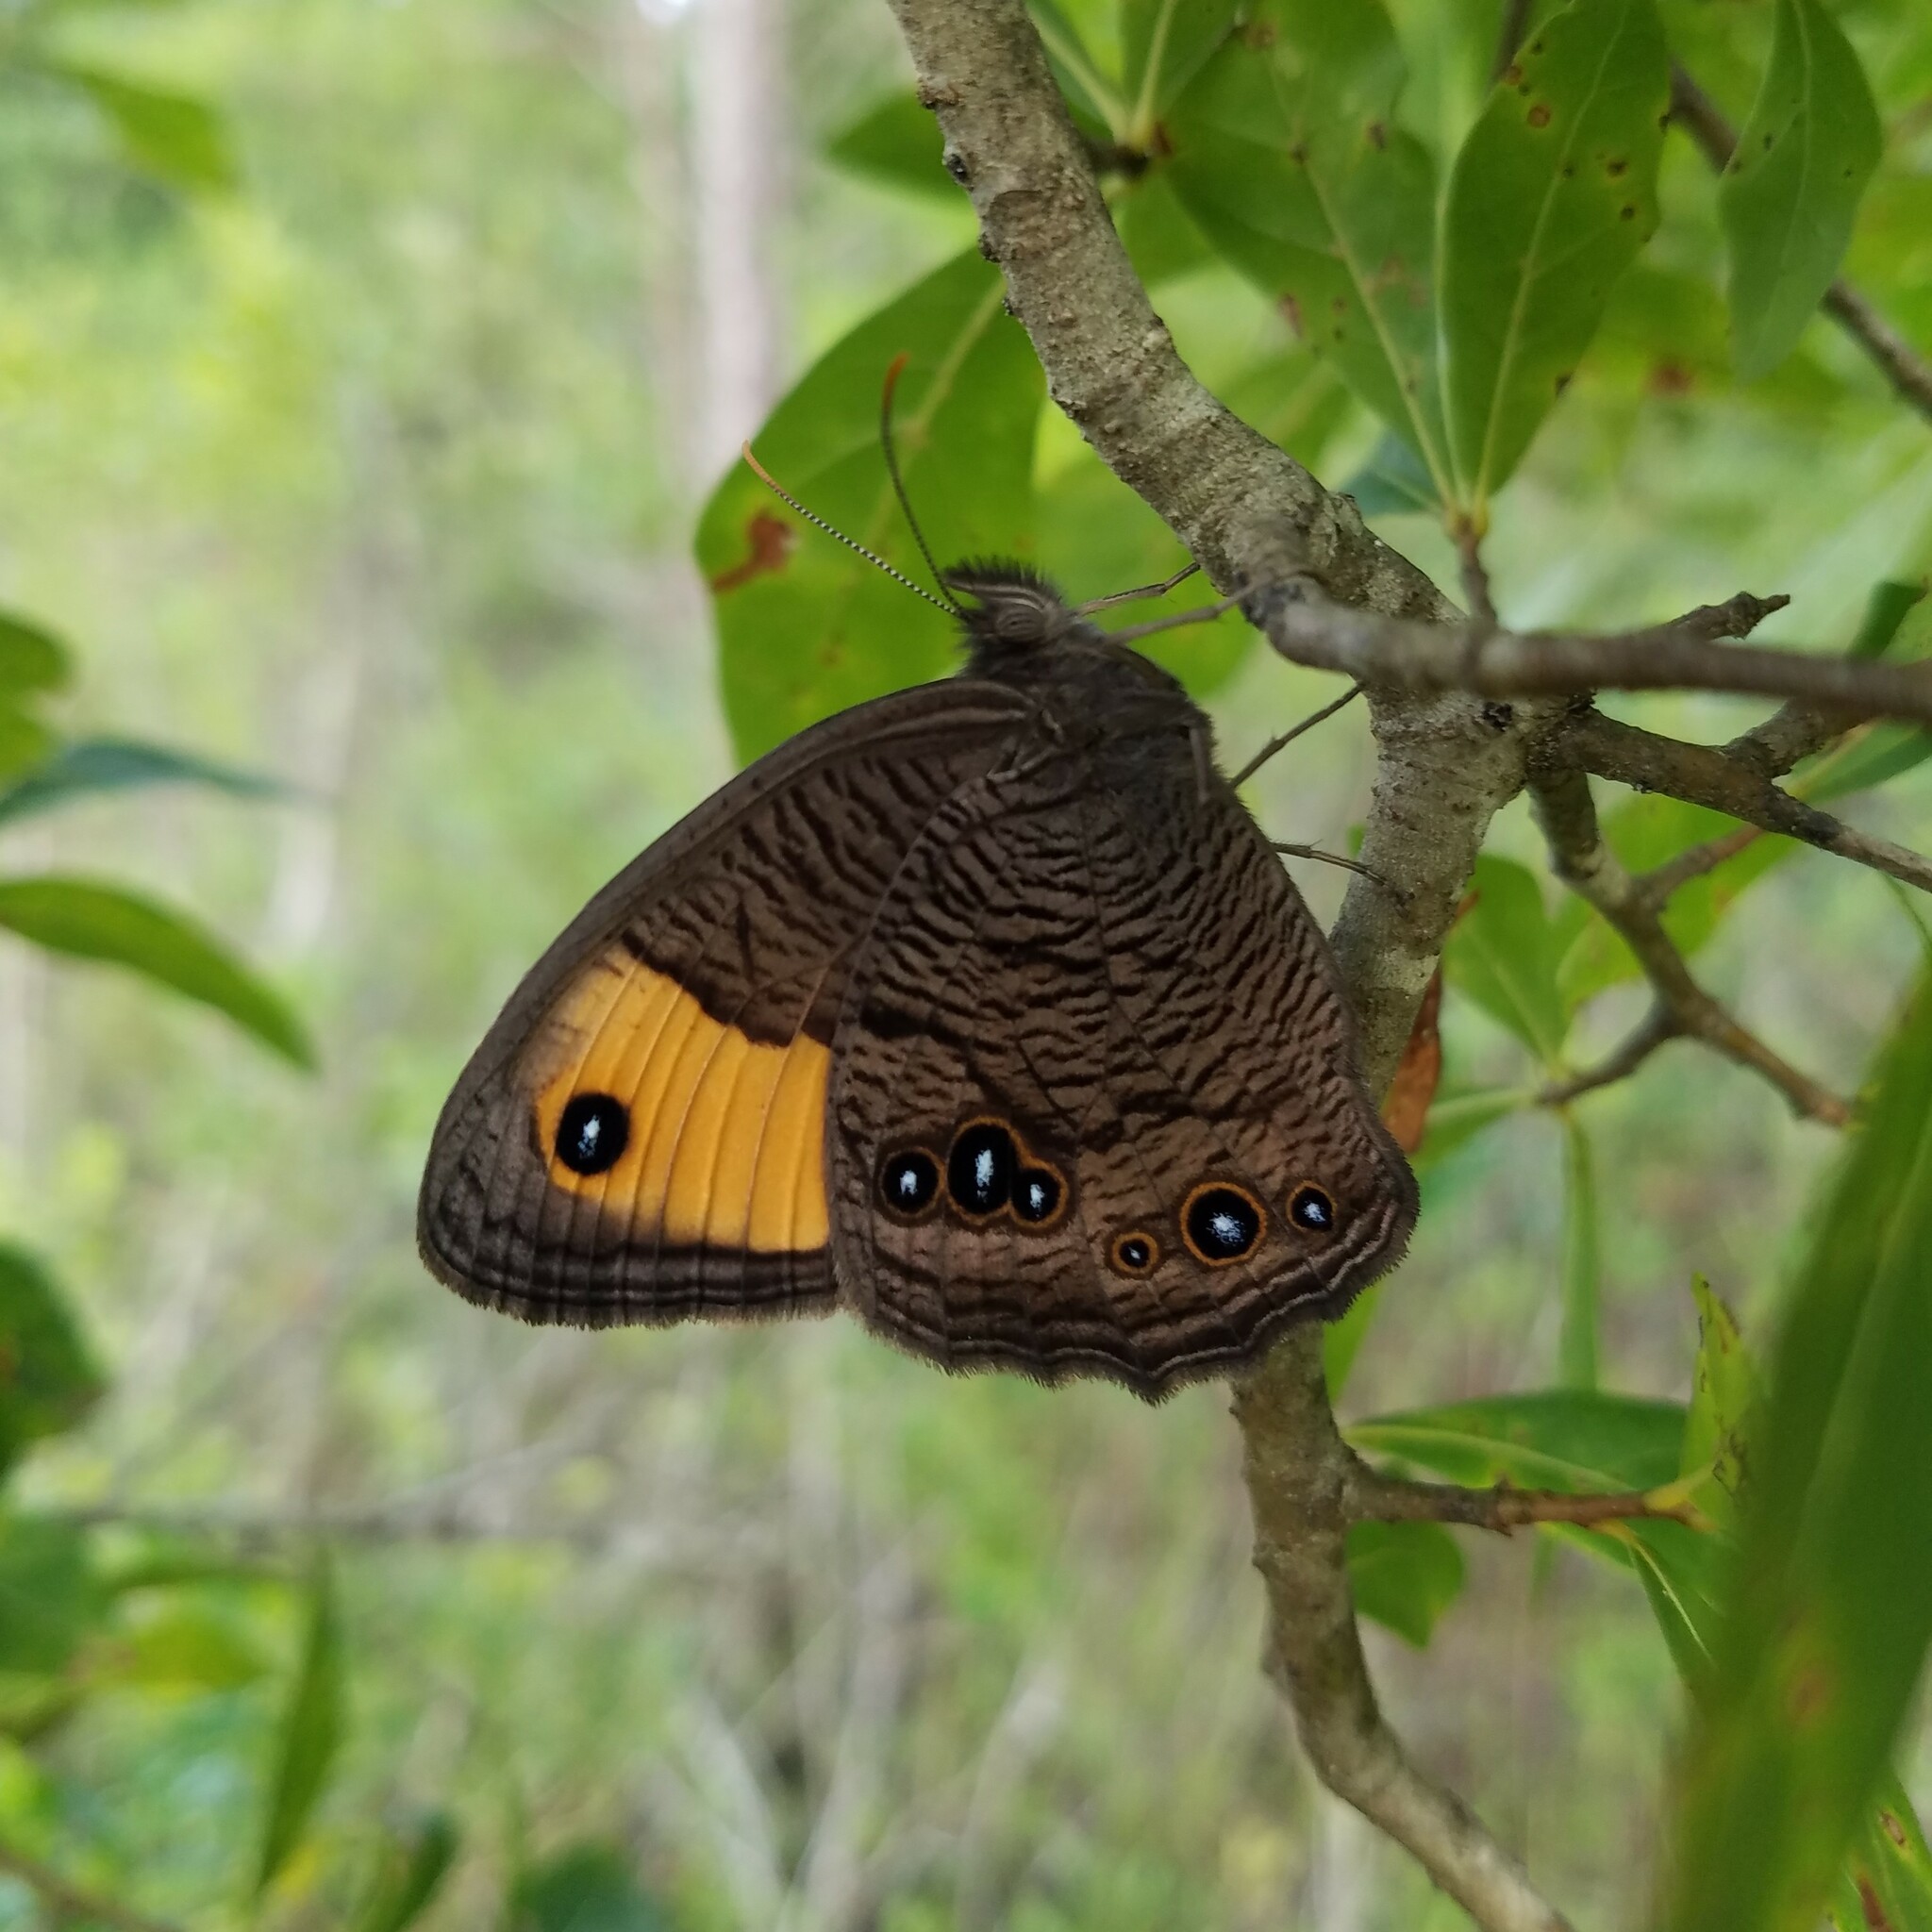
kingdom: Animalia
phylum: Arthropoda
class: Insecta
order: Lepidoptera
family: Nymphalidae
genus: Cercyonis
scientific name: Cercyonis pegala
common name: Common wood-nymph
